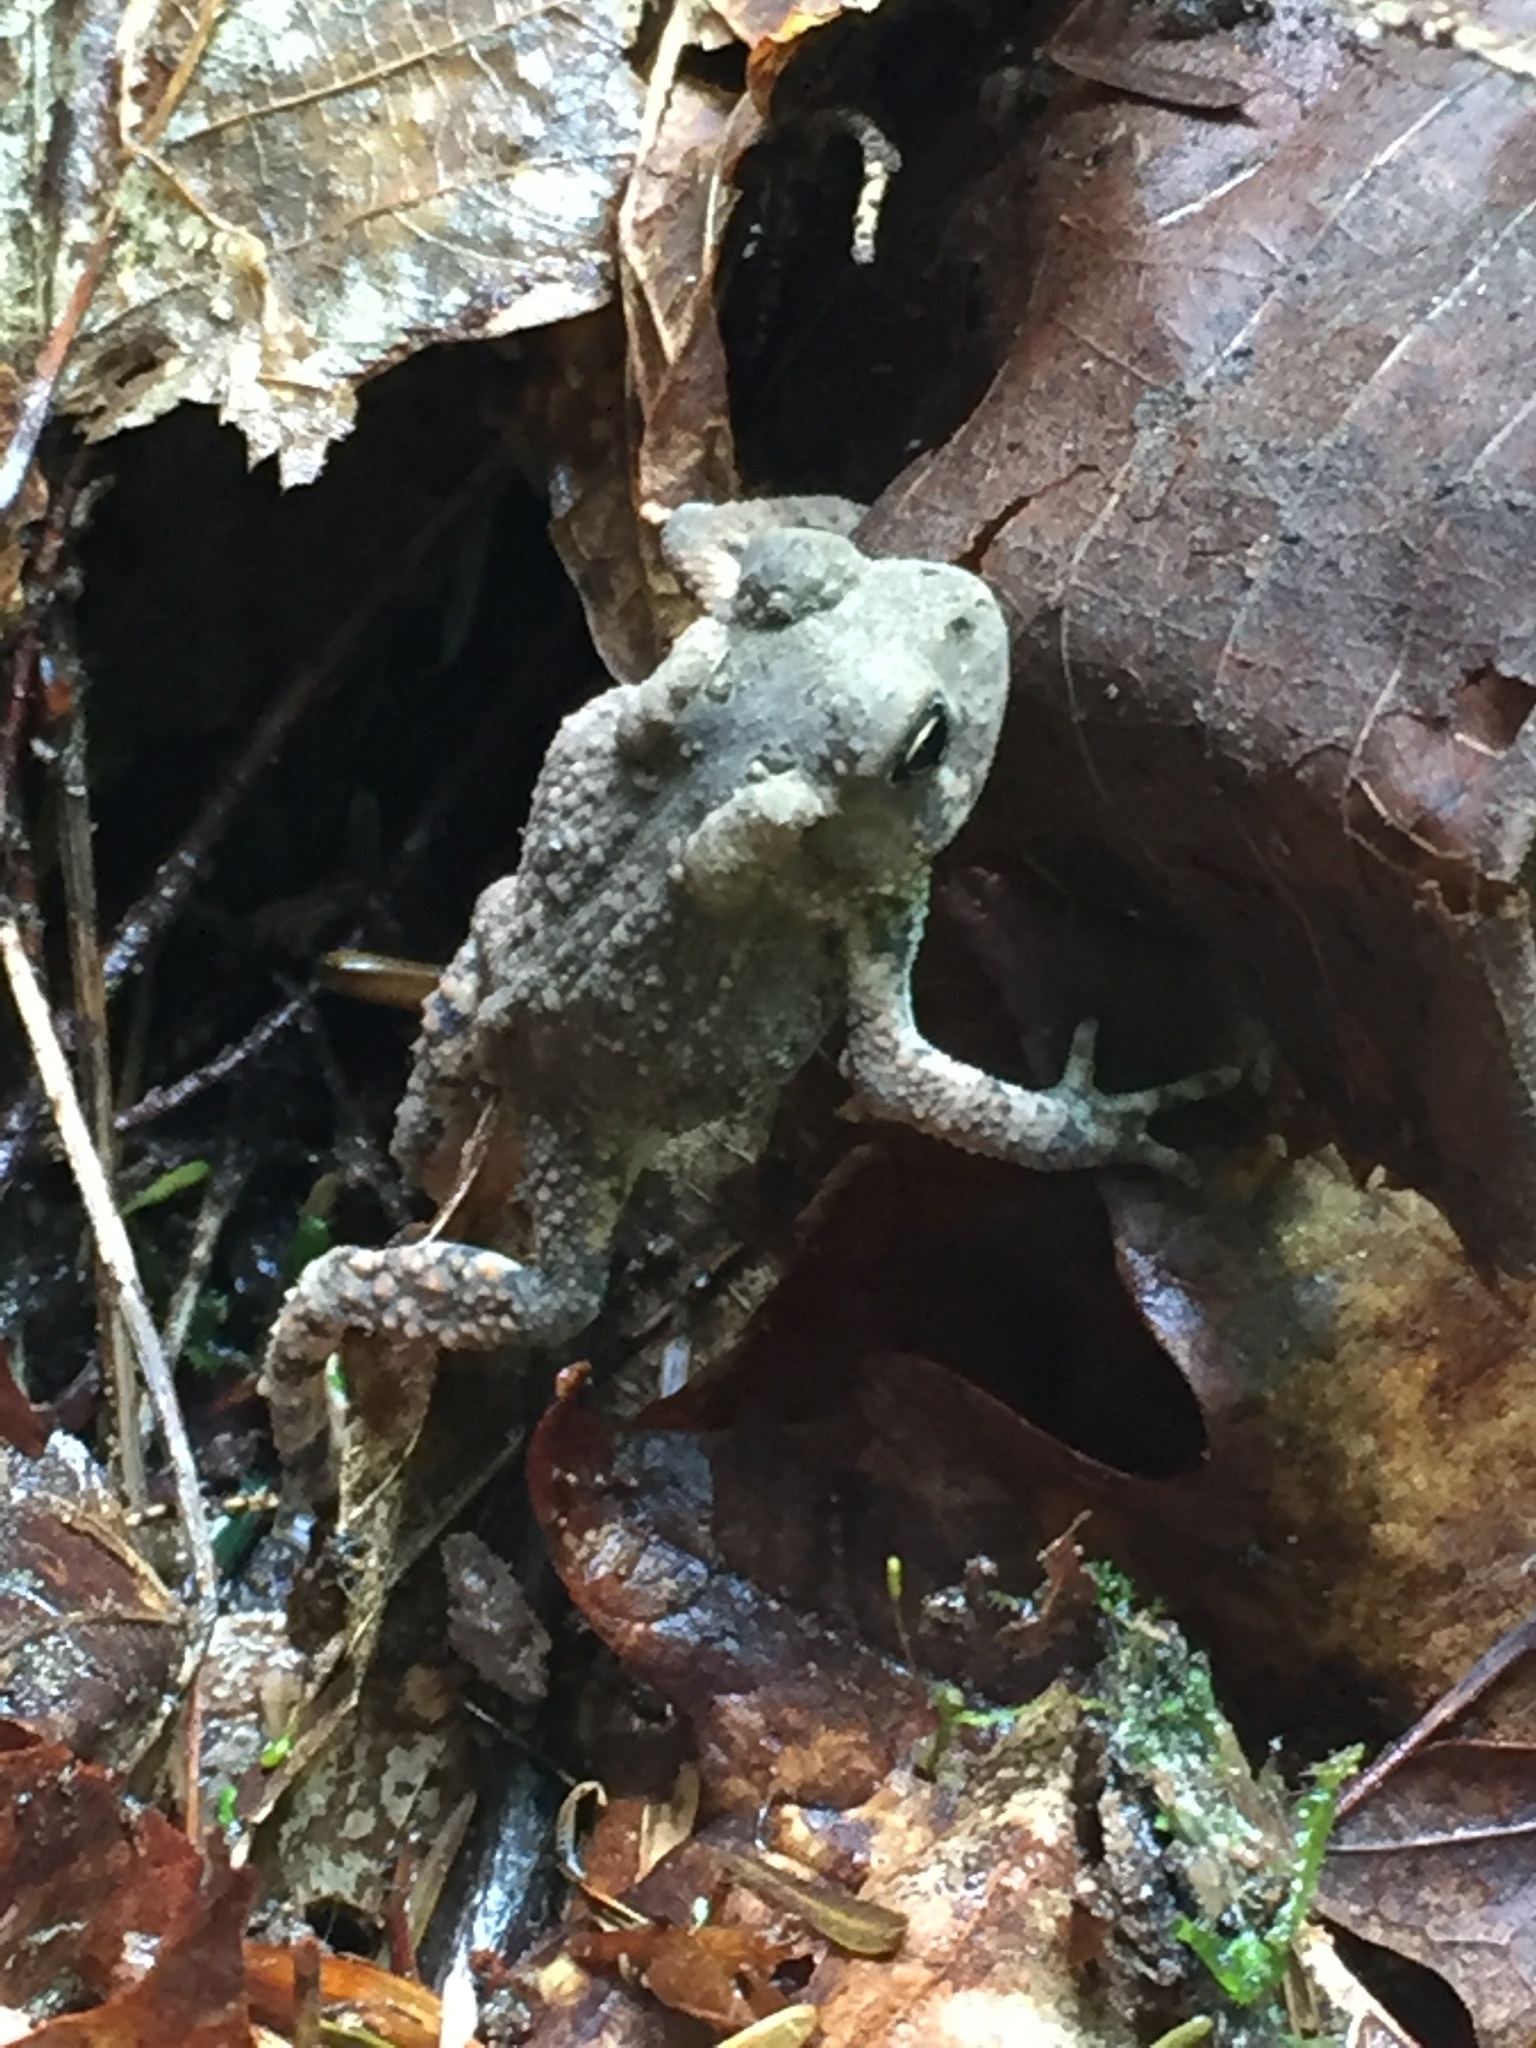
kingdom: Animalia
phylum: Chordata
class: Amphibia
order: Anura
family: Bufonidae
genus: Anaxyrus
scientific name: Anaxyrus americanus
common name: American toad
